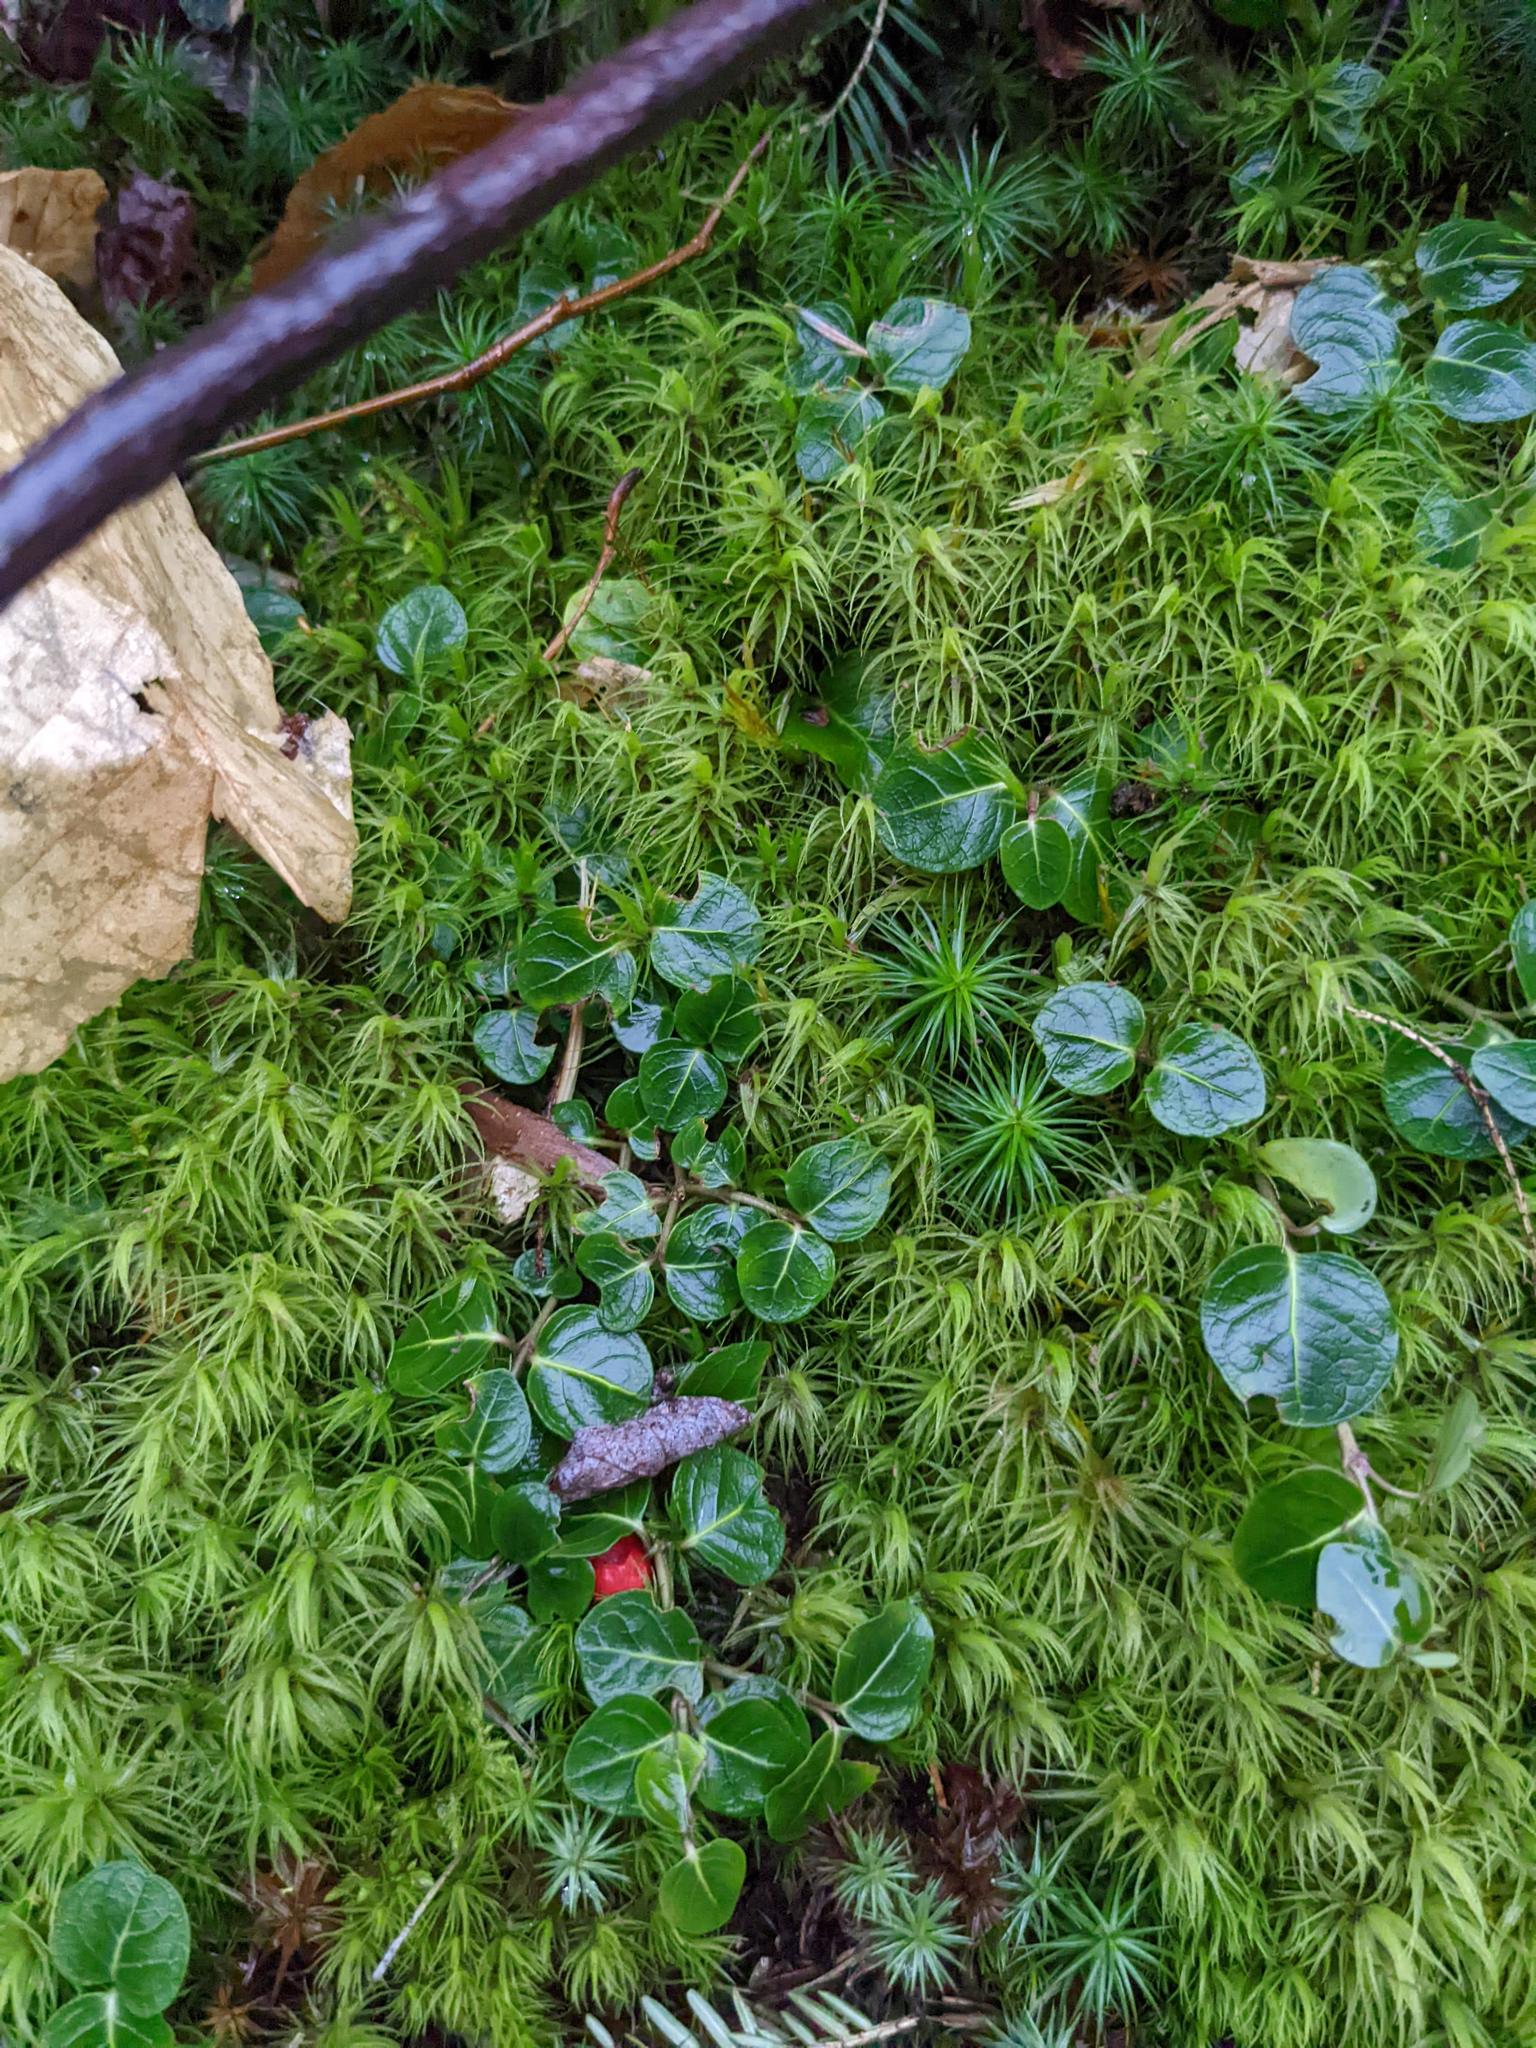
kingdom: Plantae
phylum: Tracheophyta
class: Magnoliopsida
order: Gentianales
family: Rubiaceae
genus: Mitchella
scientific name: Mitchella repens
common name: Partridge-berry
